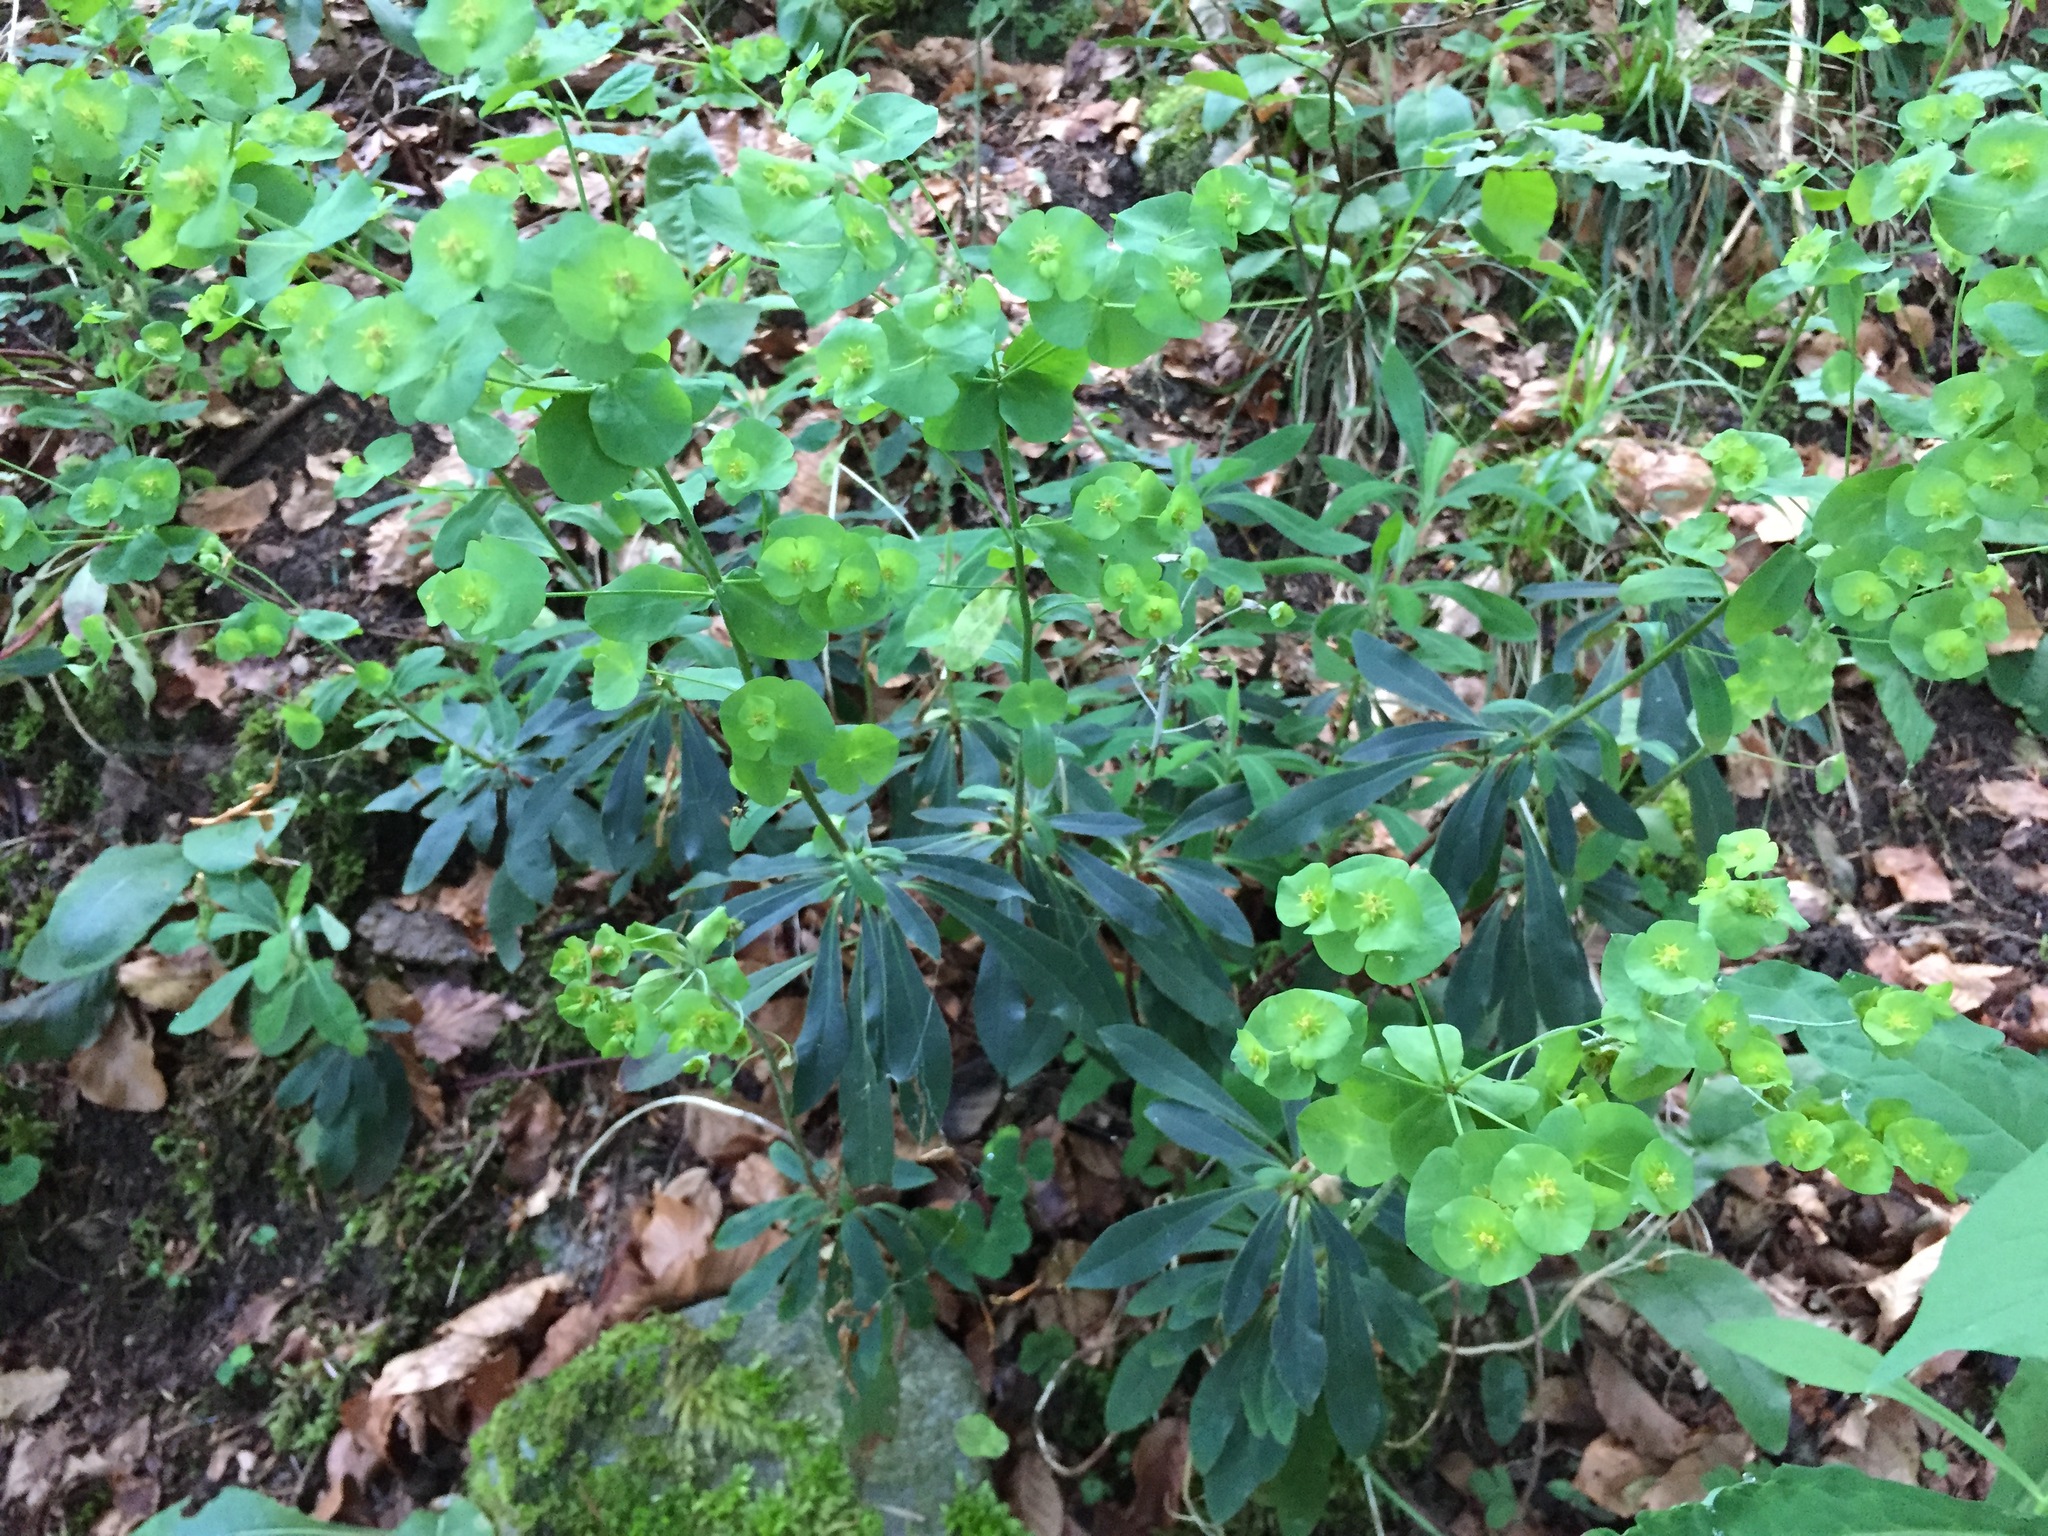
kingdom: Plantae
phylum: Tracheophyta
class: Magnoliopsida
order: Malpighiales
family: Euphorbiaceae
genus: Euphorbia
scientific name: Euphorbia amygdaloides
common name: Wood spurge
